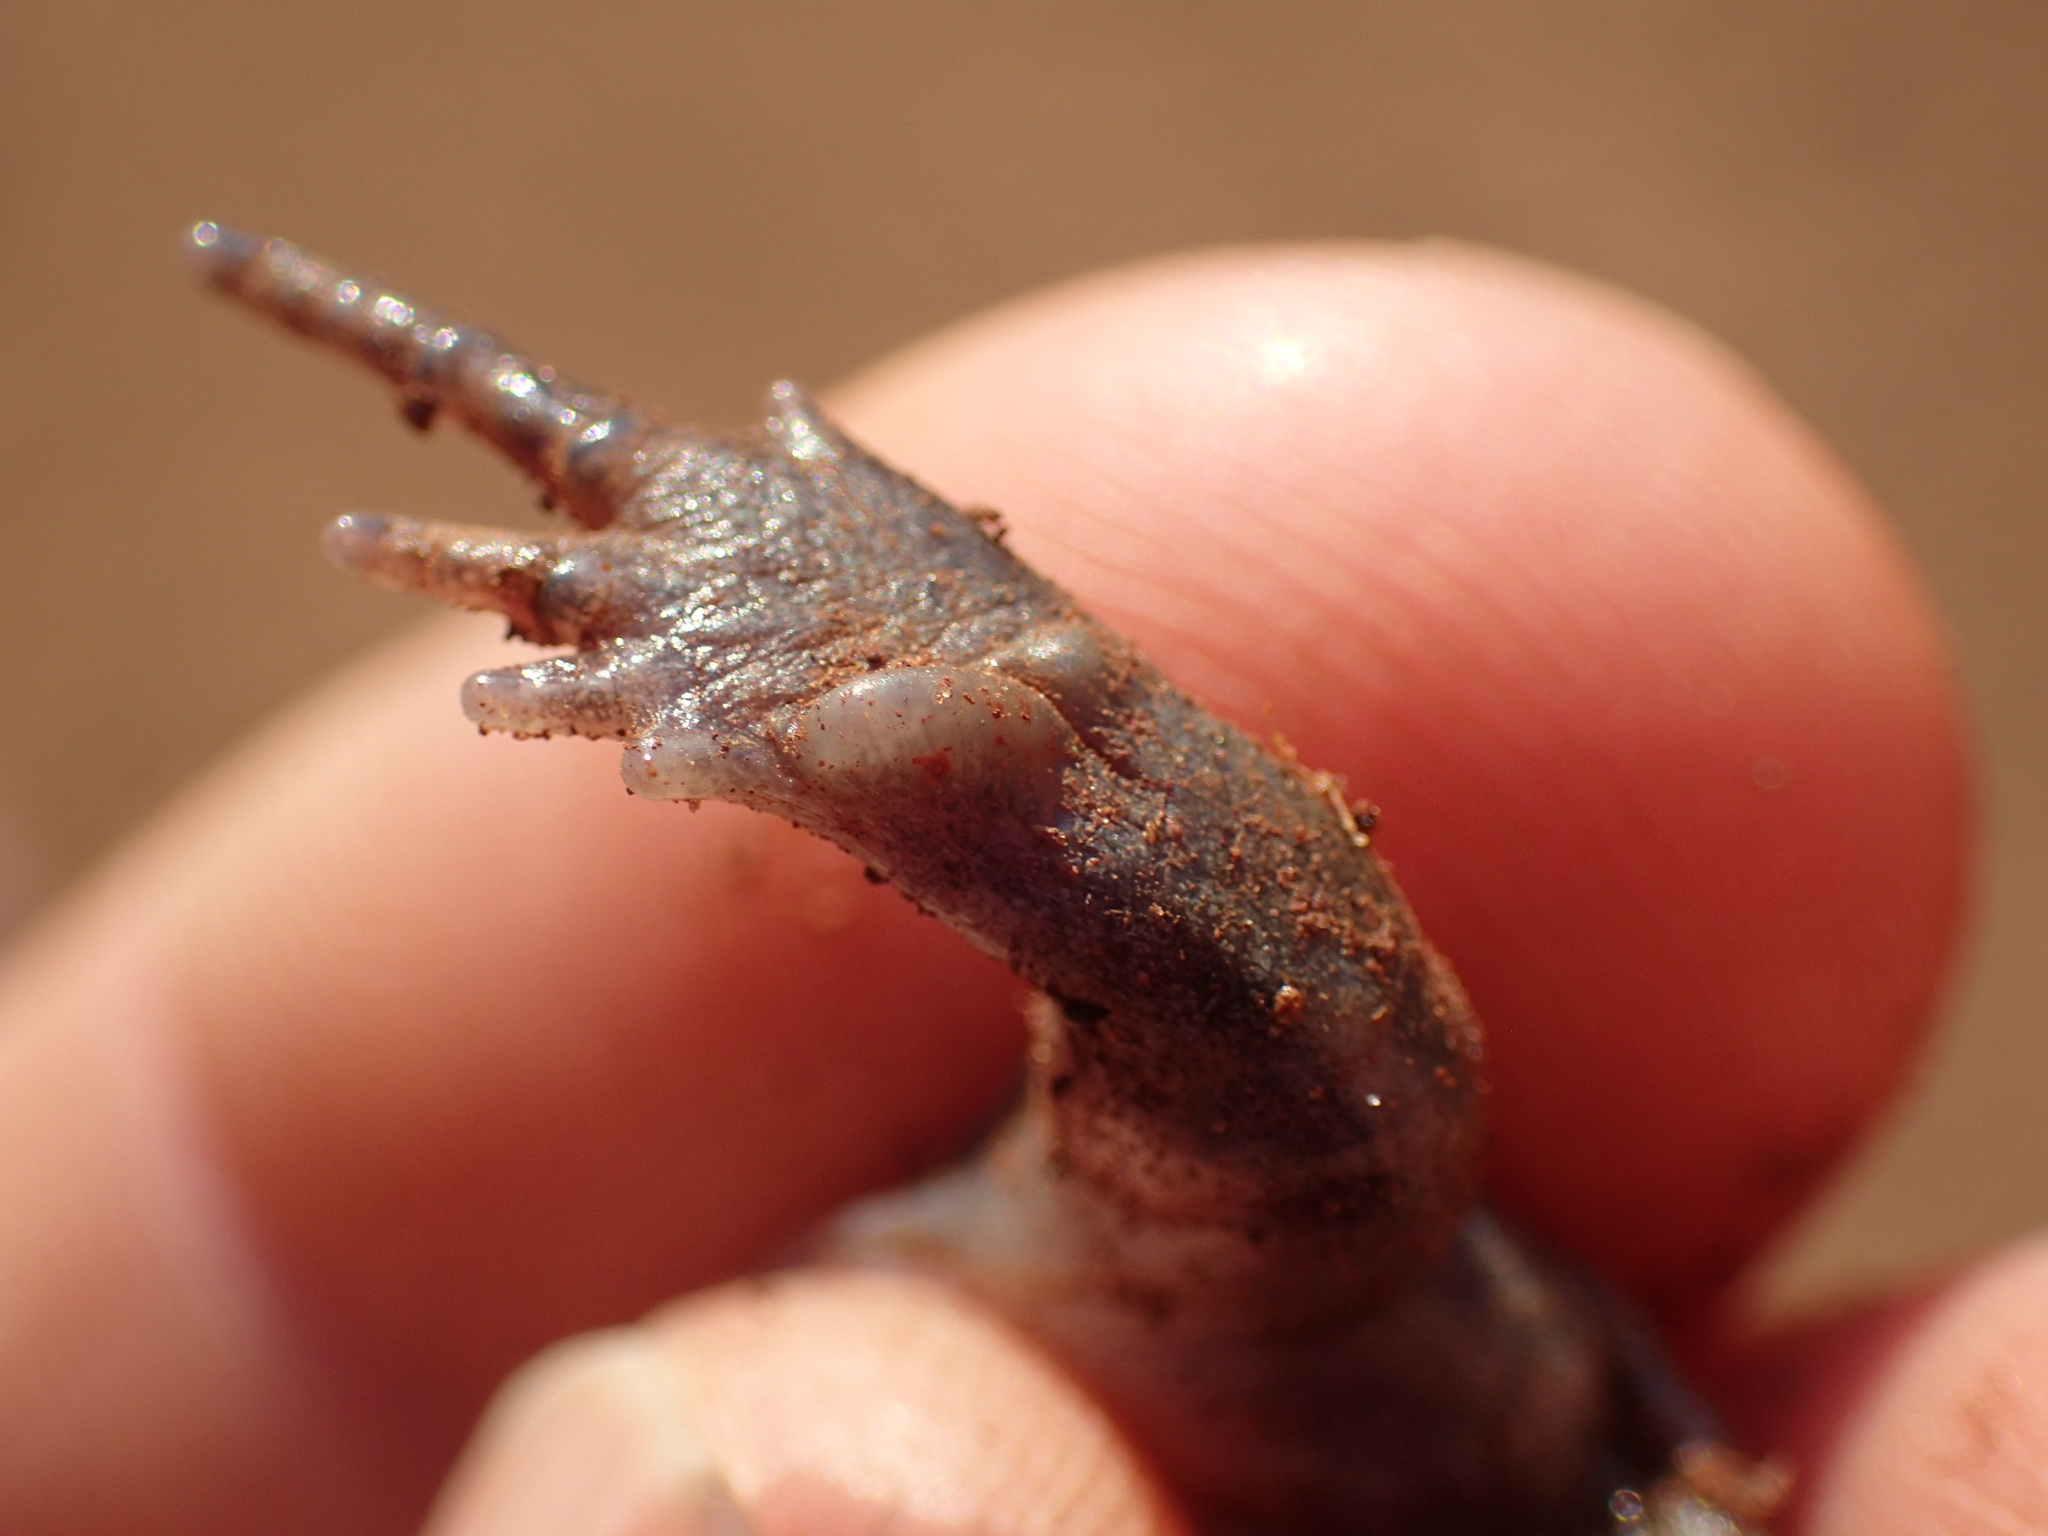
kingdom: Animalia
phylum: Chordata
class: Amphibia
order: Anura
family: Brevicipitidae
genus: Breviceps
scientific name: Breviceps poweri
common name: Power's rain frog
